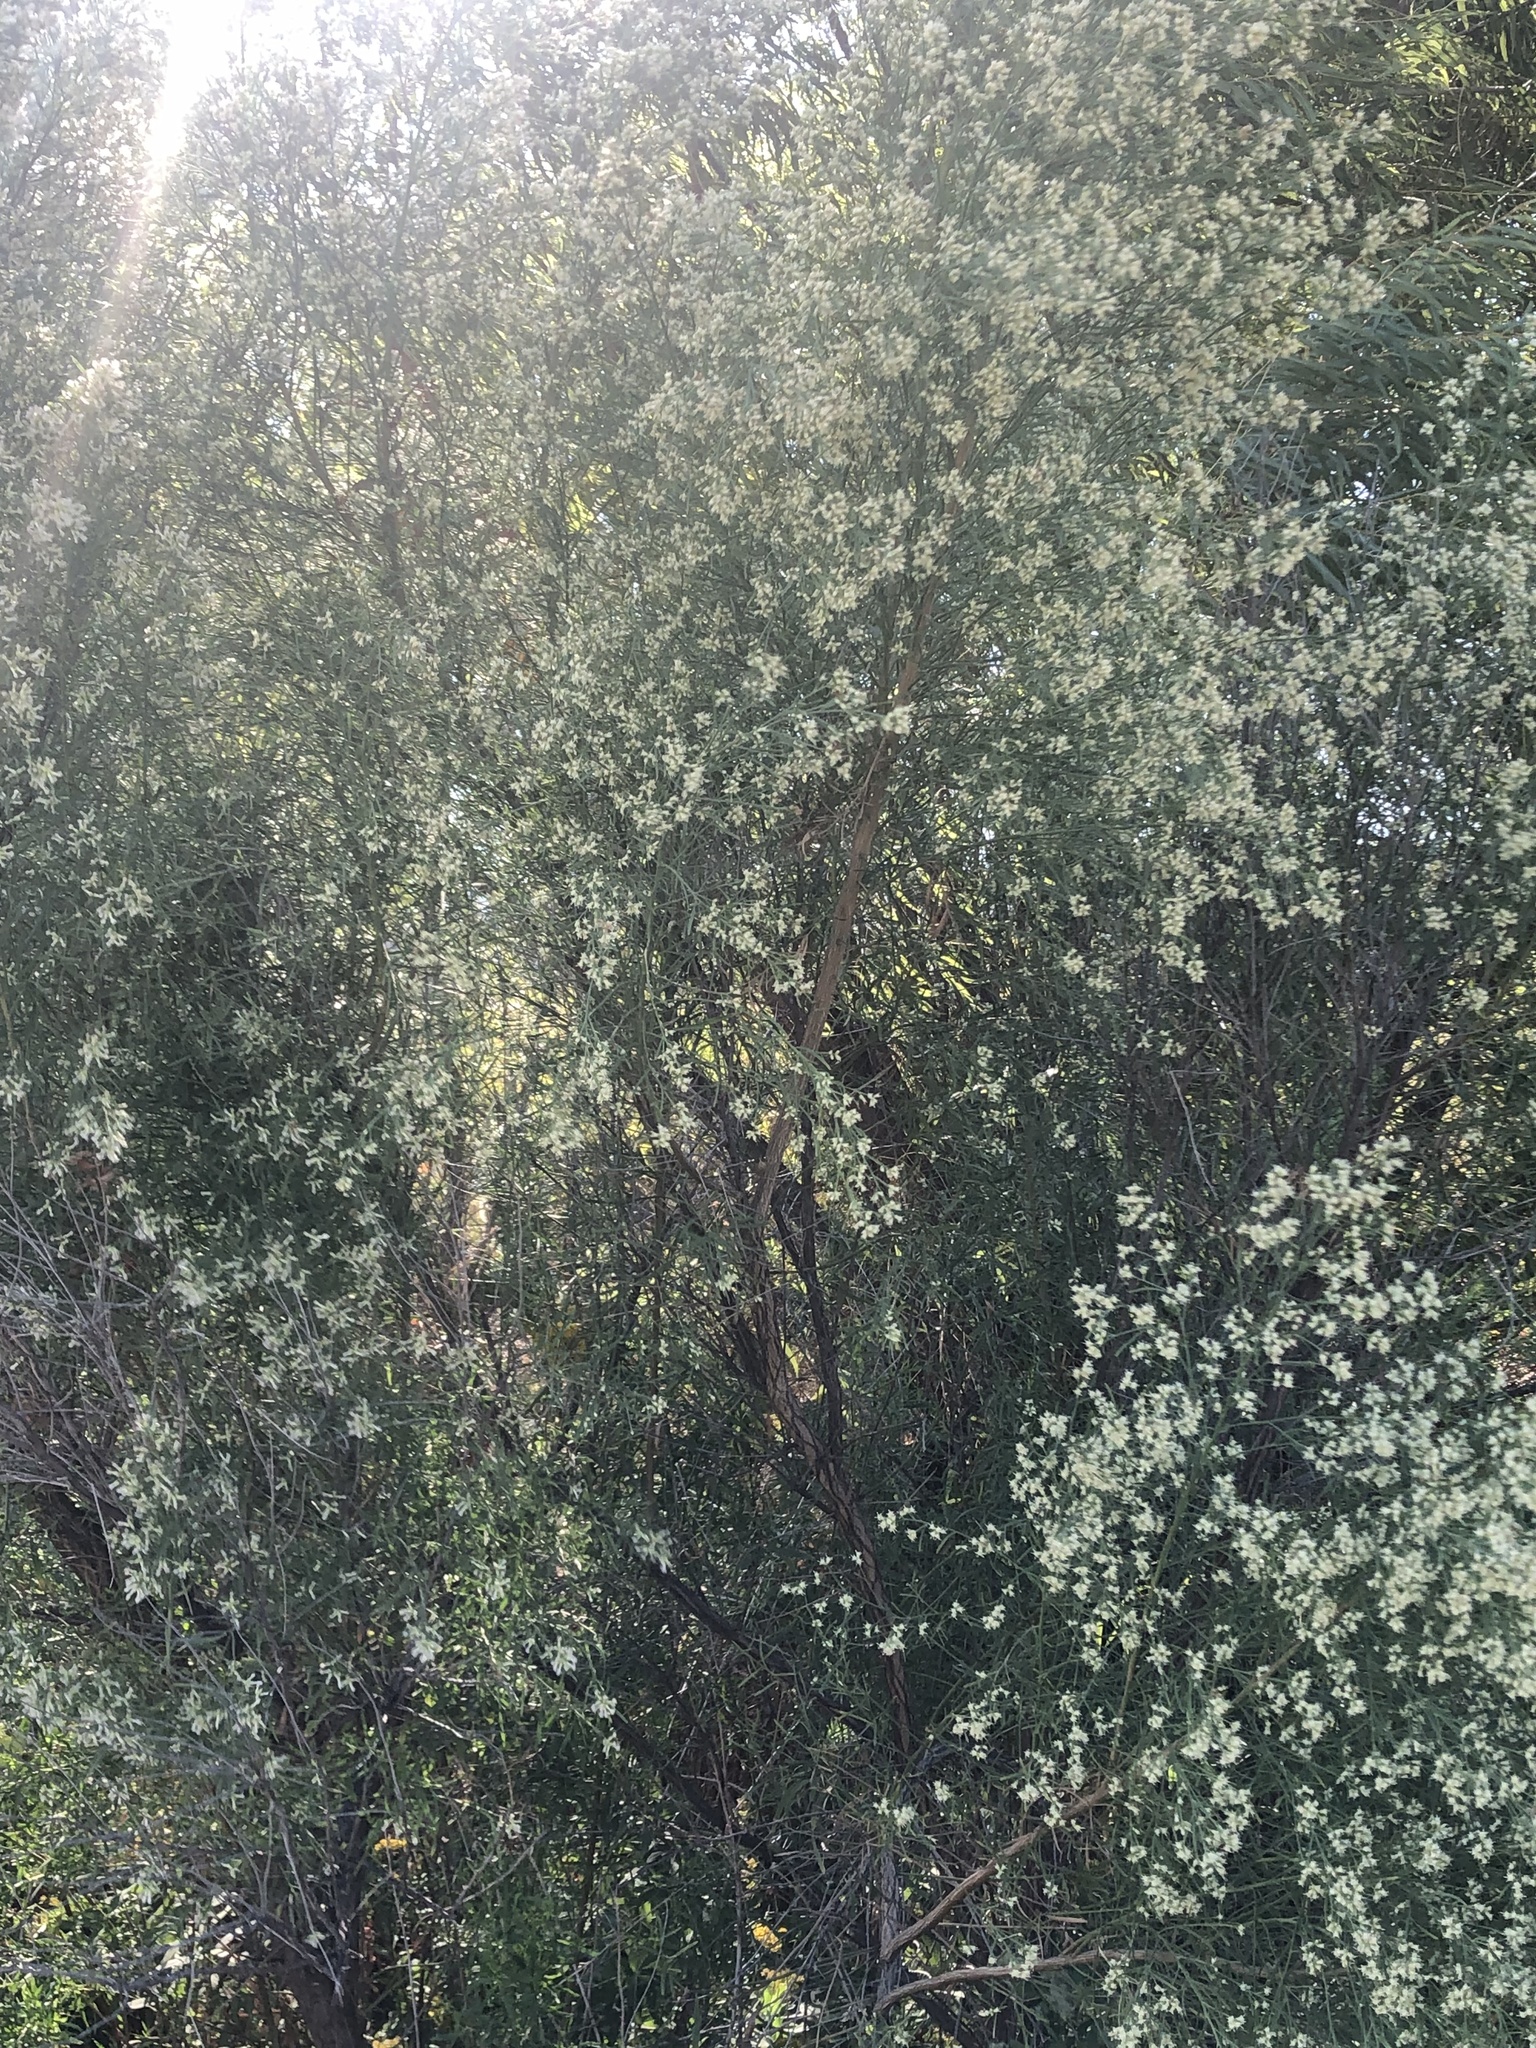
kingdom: Plantae
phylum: Tracheophyta
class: Magnoliopsida
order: Asterales
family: Asteraceae
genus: Baccharis
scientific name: Baccharis neglecta
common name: Roosevelt-weed
